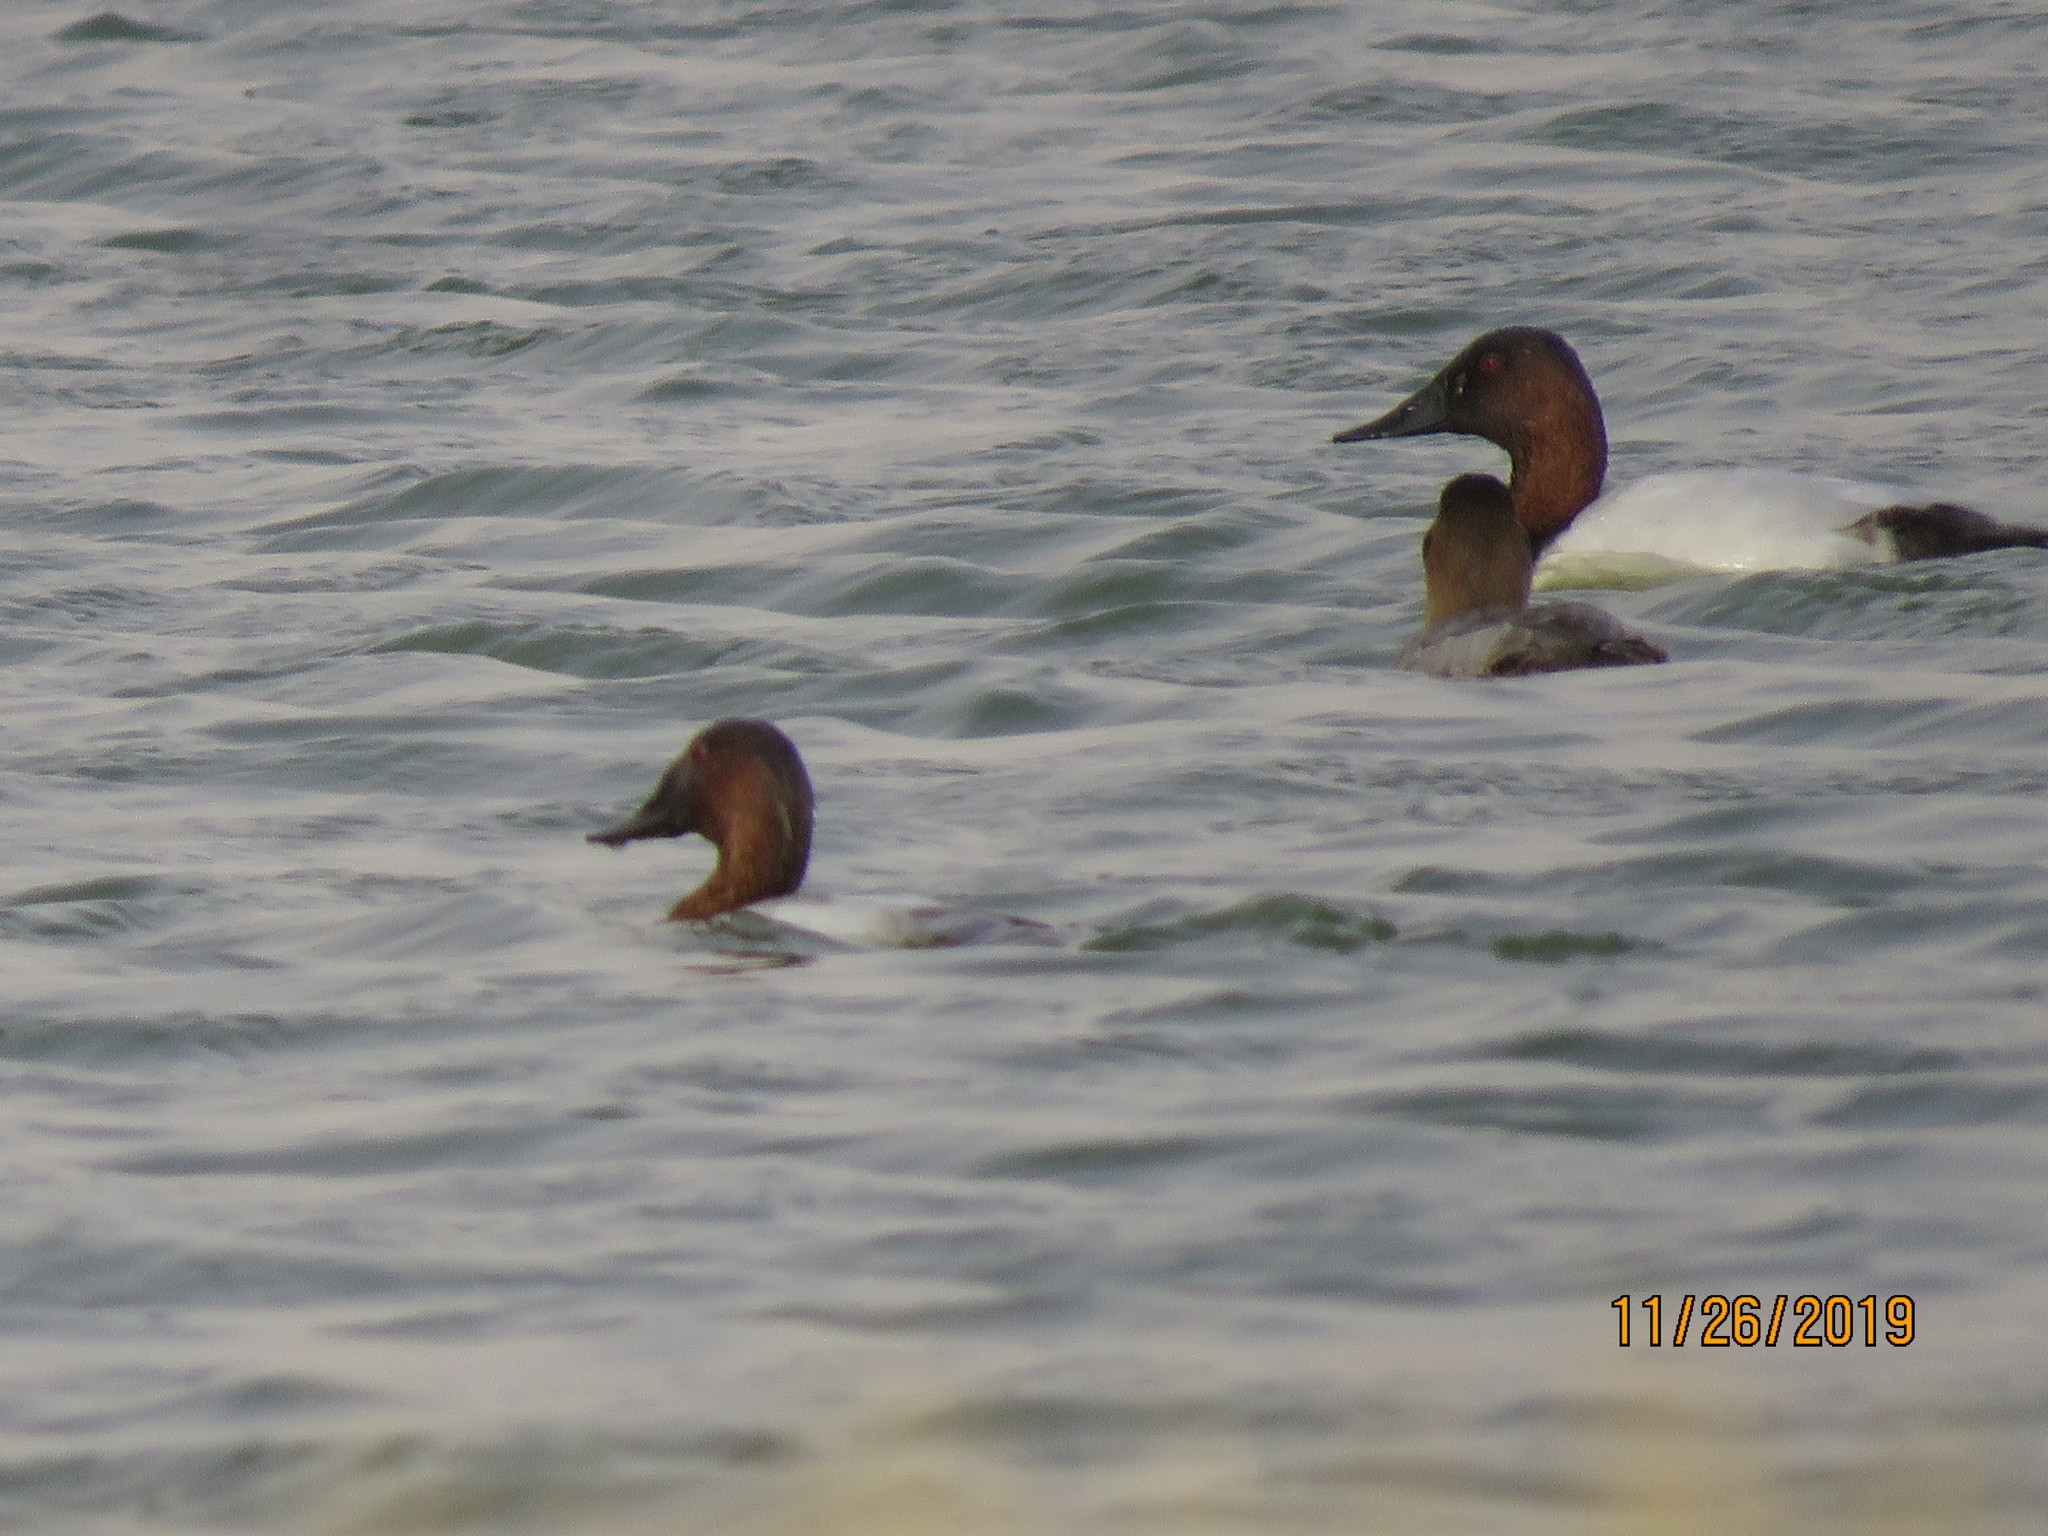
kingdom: Animalia
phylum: Chordata
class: Aves
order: Anseriformes
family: Anatidae
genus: Aythya
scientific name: Aythya valisineria
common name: Canvasback
